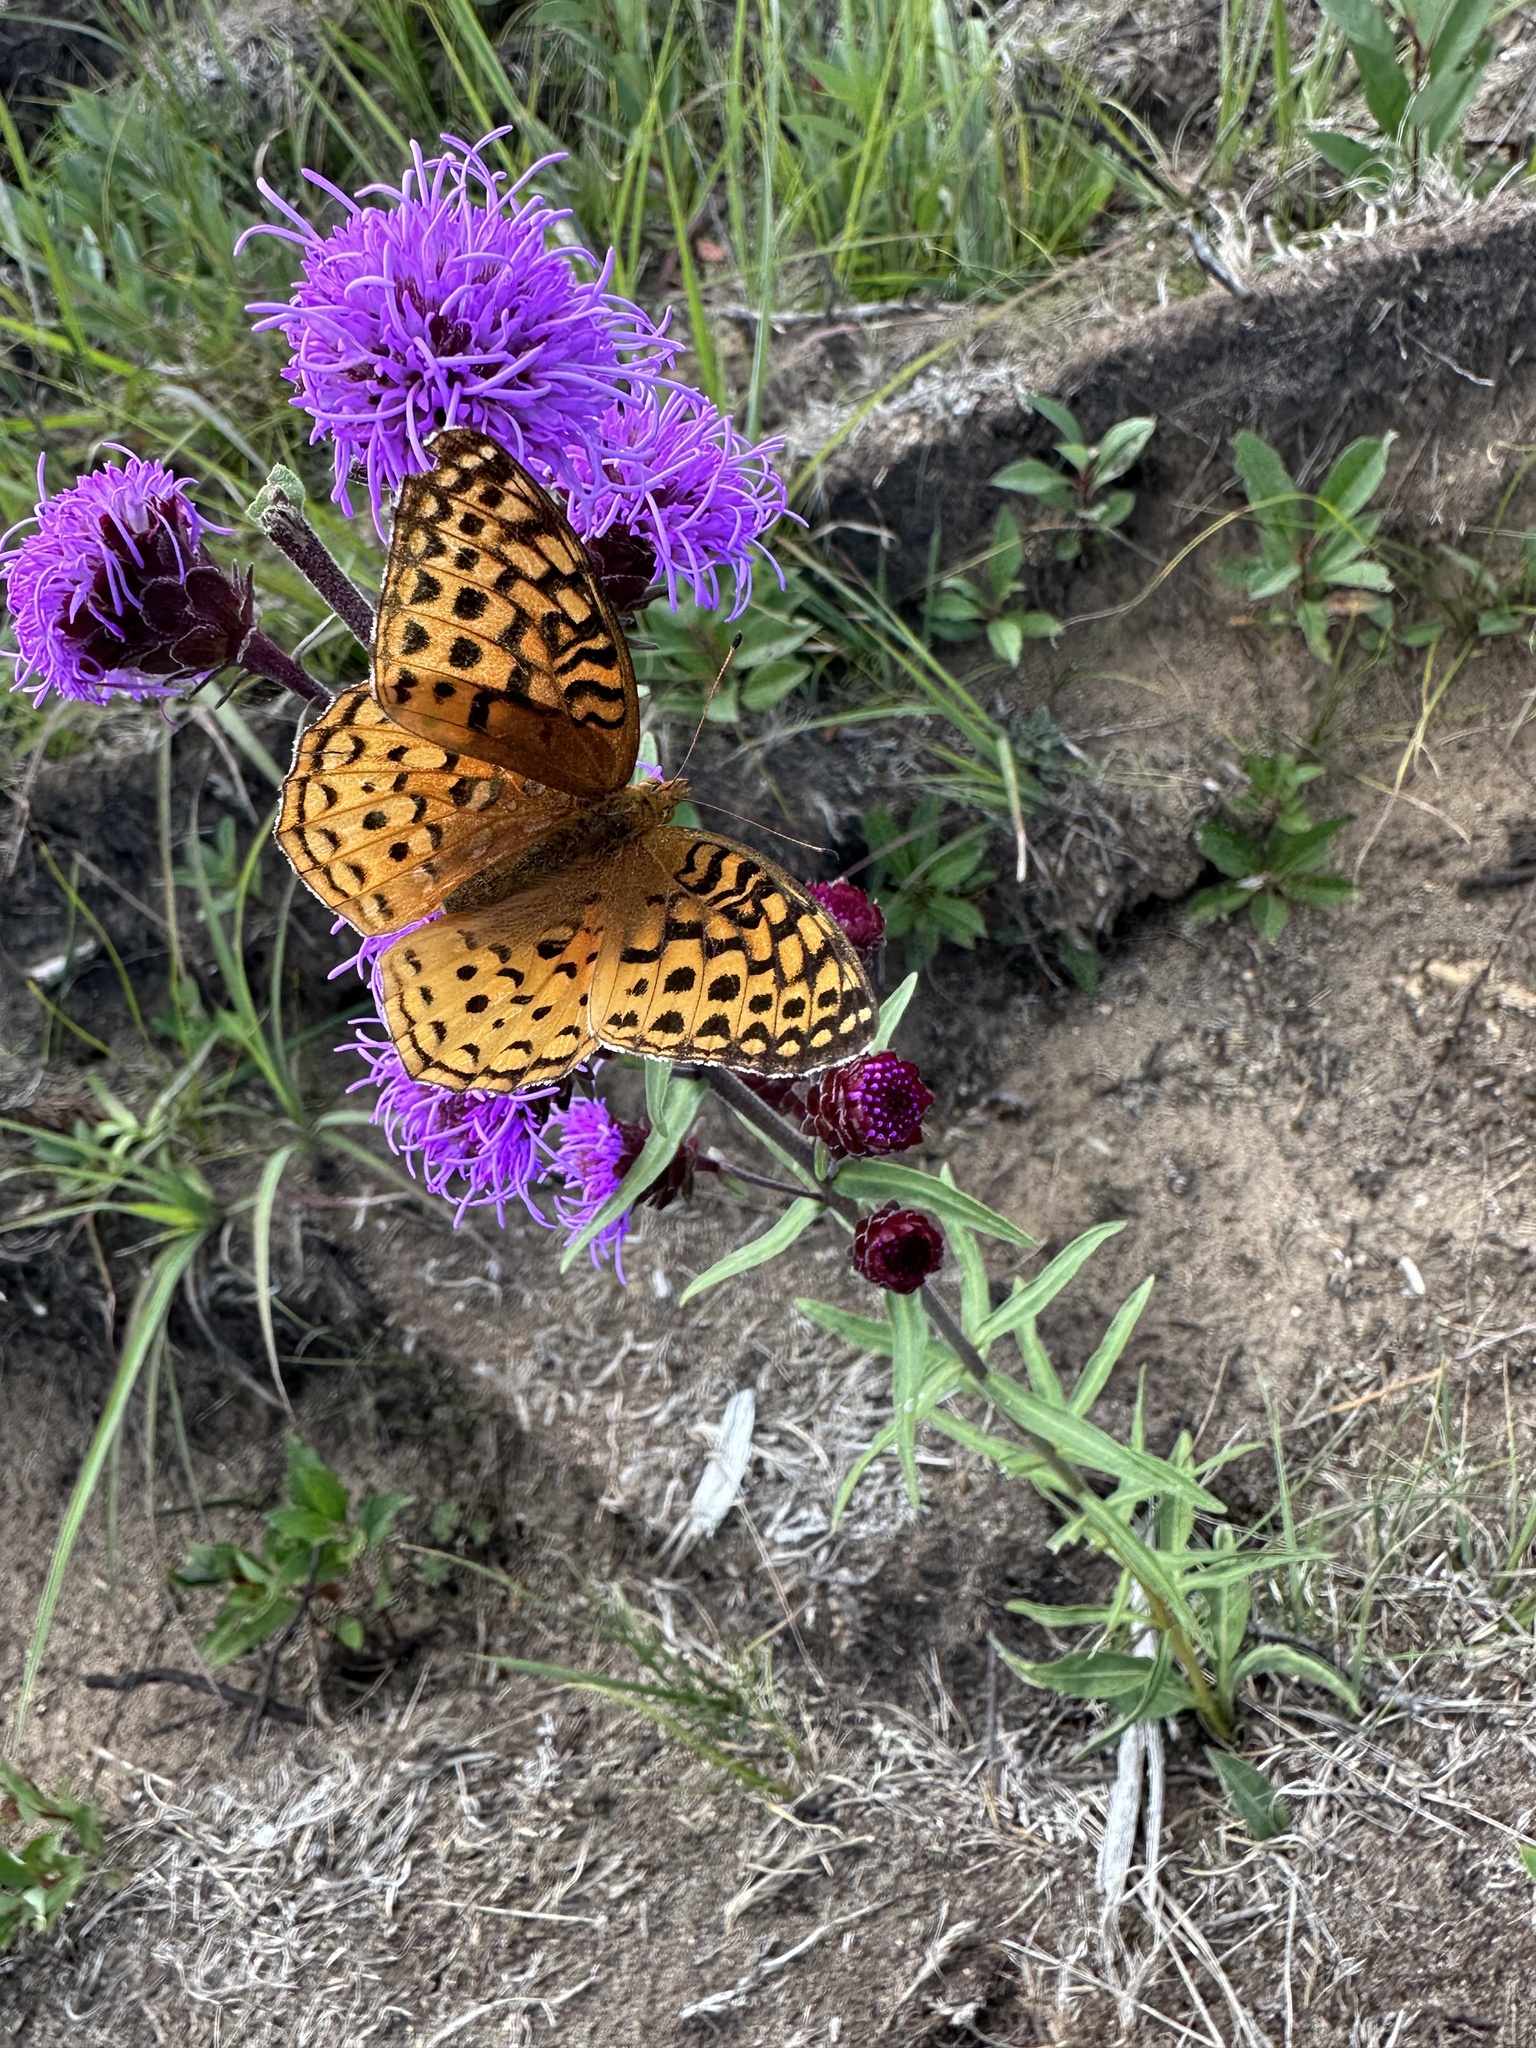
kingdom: Animalia
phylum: Arthropoda
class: Insecta
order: Lepidoptera
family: Nymphalidae
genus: Speyeria
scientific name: Speyeria aphrodite
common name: Aphrodite friitllary
